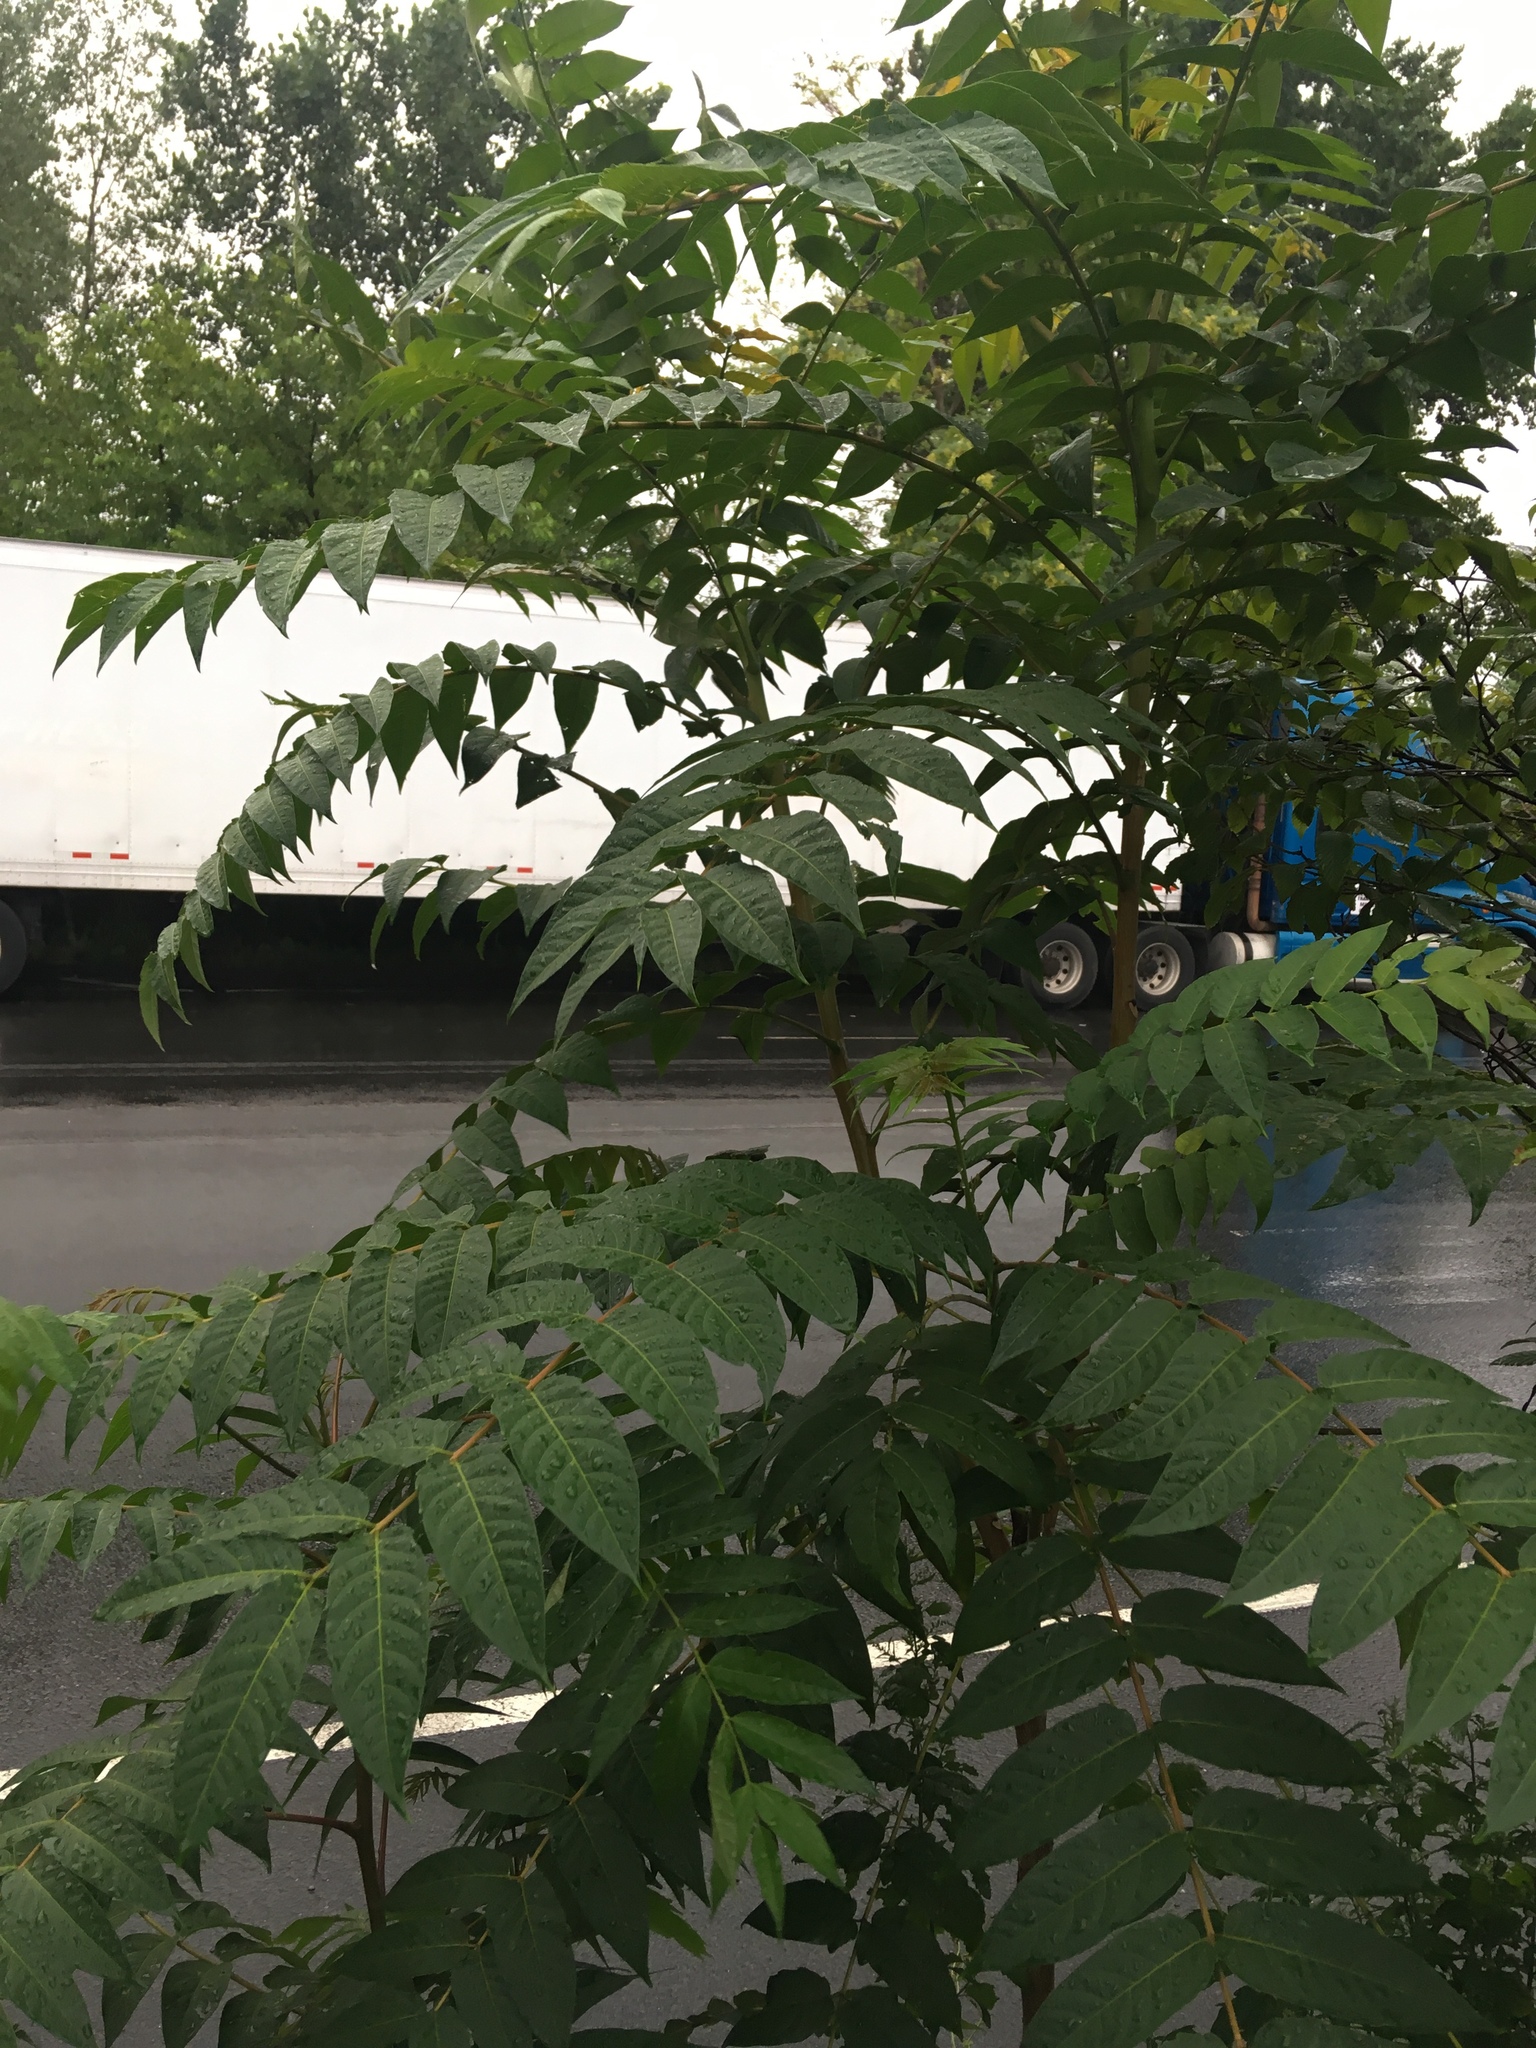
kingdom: Plantae
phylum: Tracheophyta
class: Magnoliopsida
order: Sapindales
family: Simaroubaceae
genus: Ailanthus
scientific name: Ailanthus altissima
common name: Tree-of-heaven
